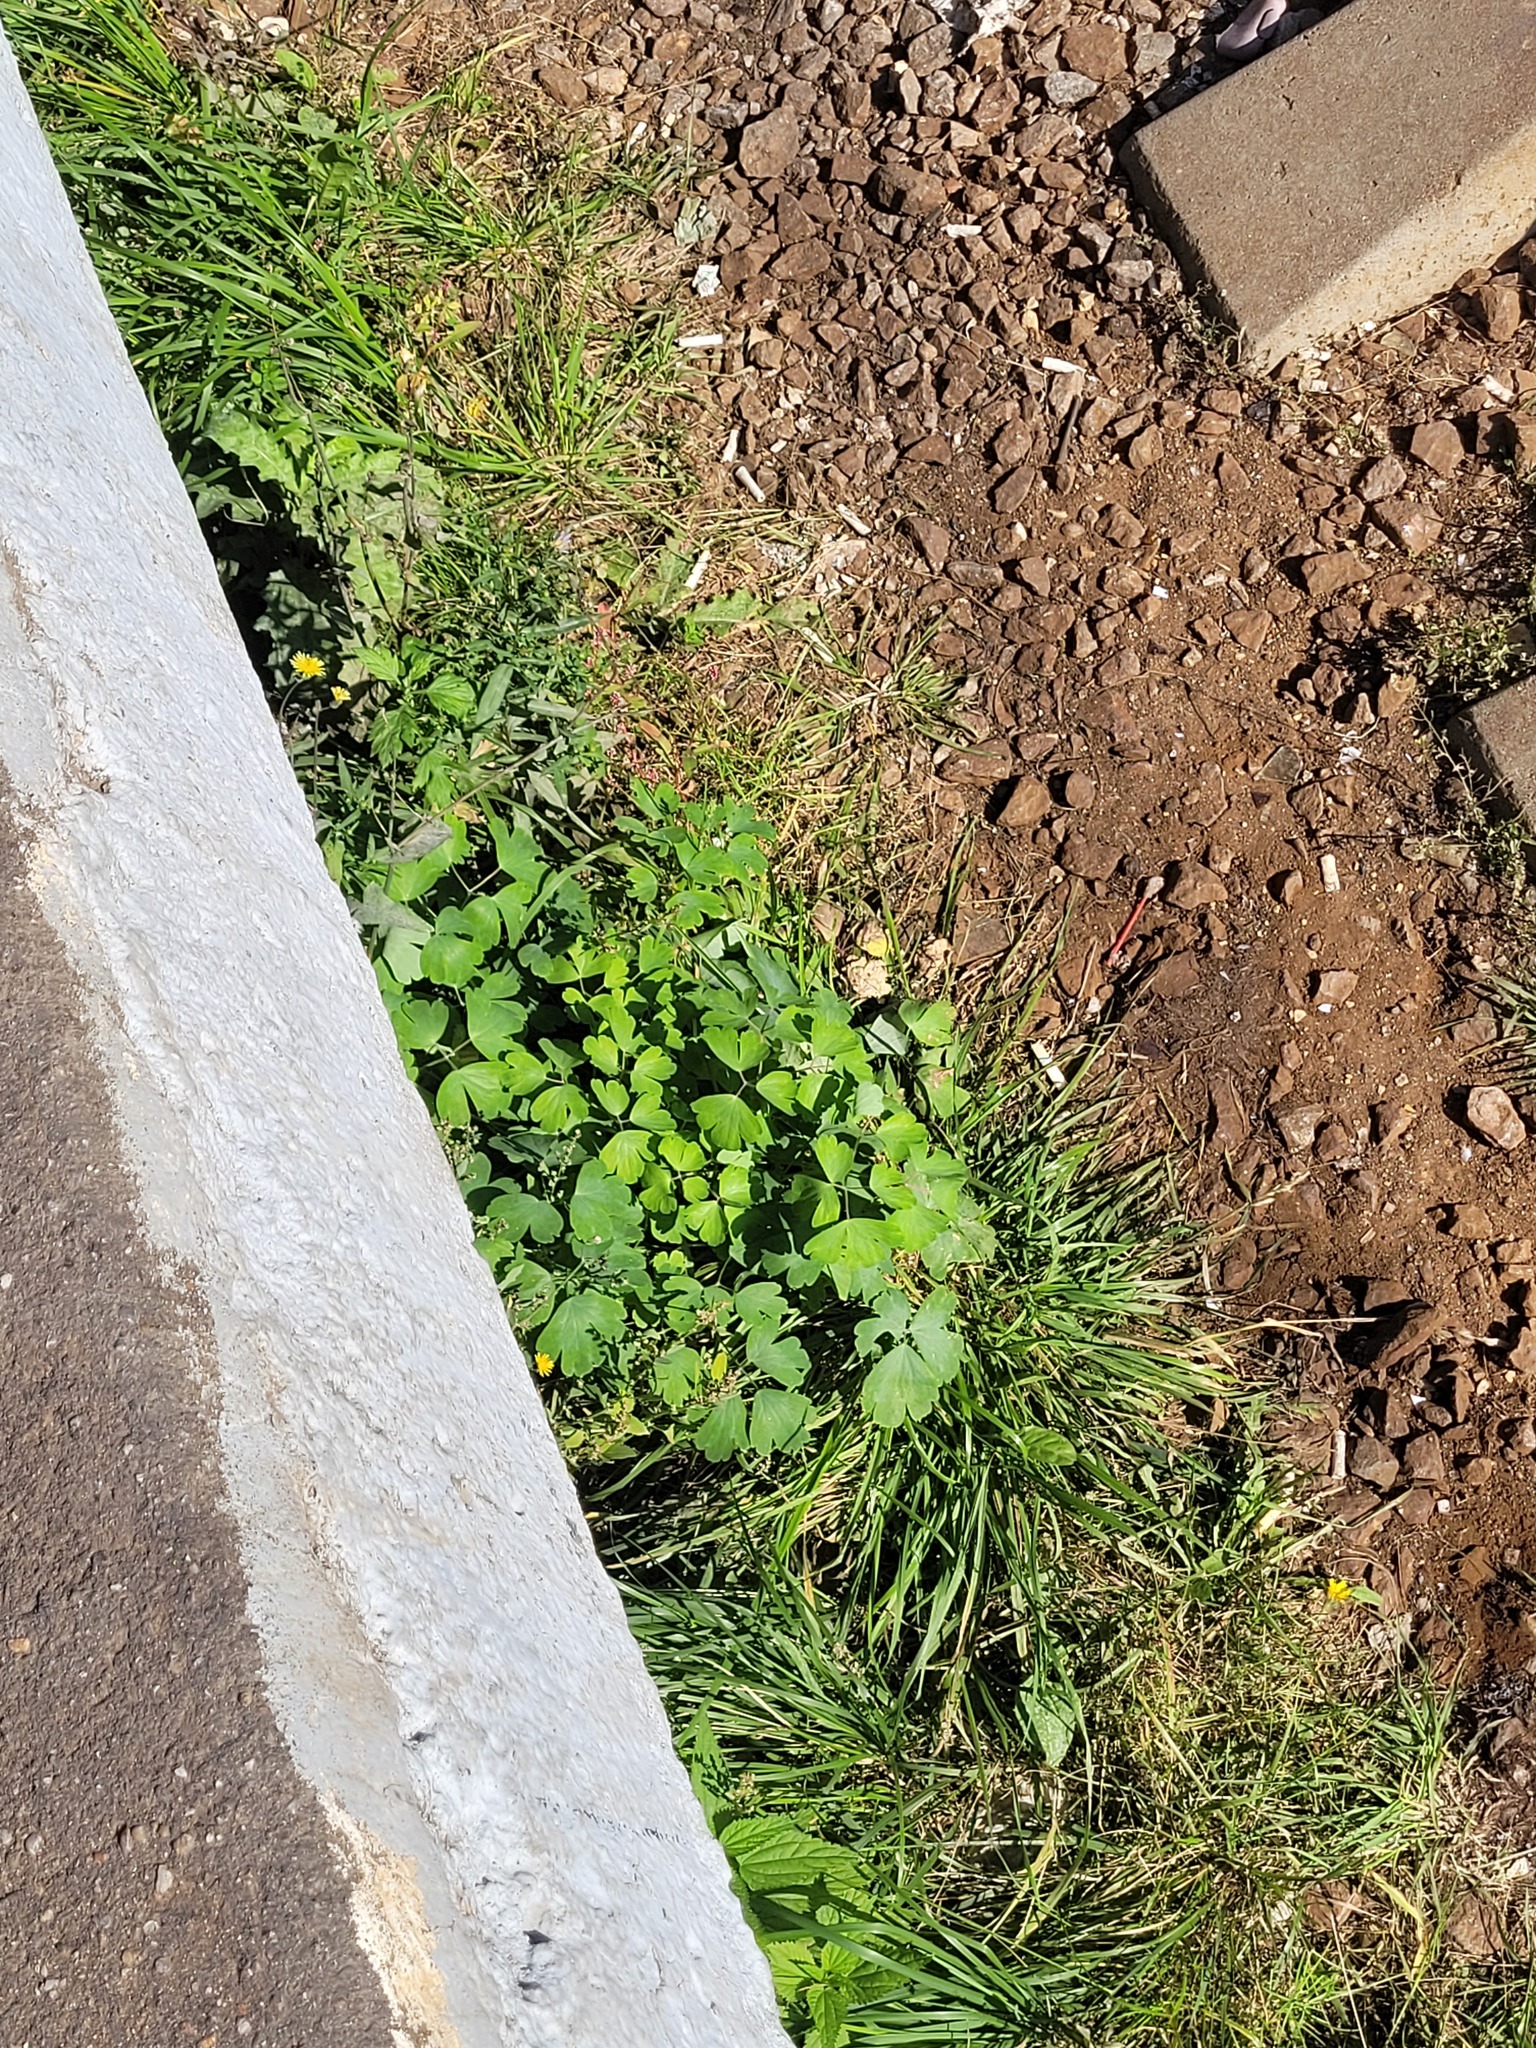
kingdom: Plantae
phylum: Tracheophyta
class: Magnoliopsida
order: Ranunculales
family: Ranunculaceae
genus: Aquilegia
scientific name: Aquilegia vulgaris
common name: Columbine
